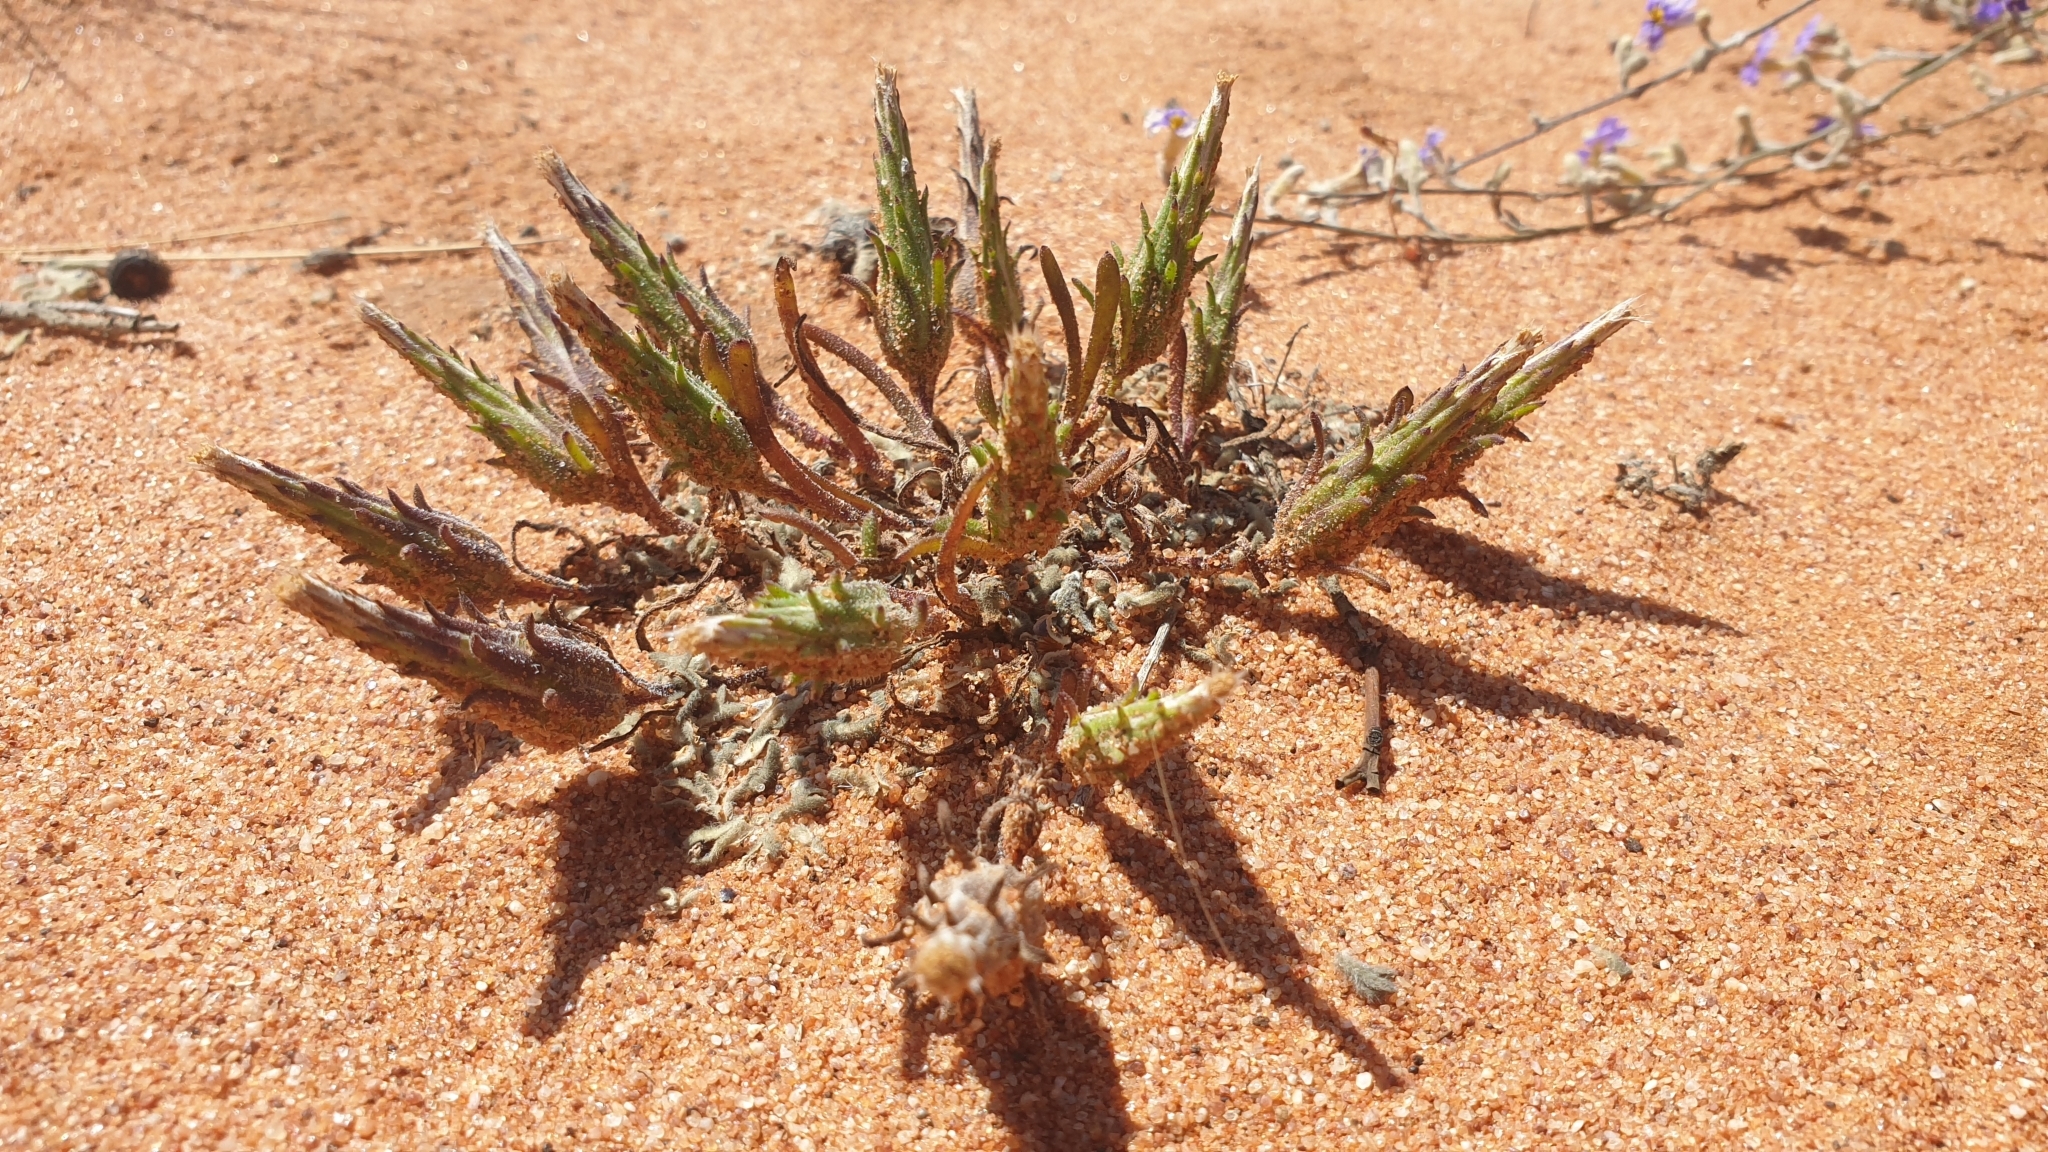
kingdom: Plantae
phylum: Tracheophyta
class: Magnoliopsida
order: Asterales
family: Asteraceae
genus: Podotheca
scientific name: Podotheca angustifolia
